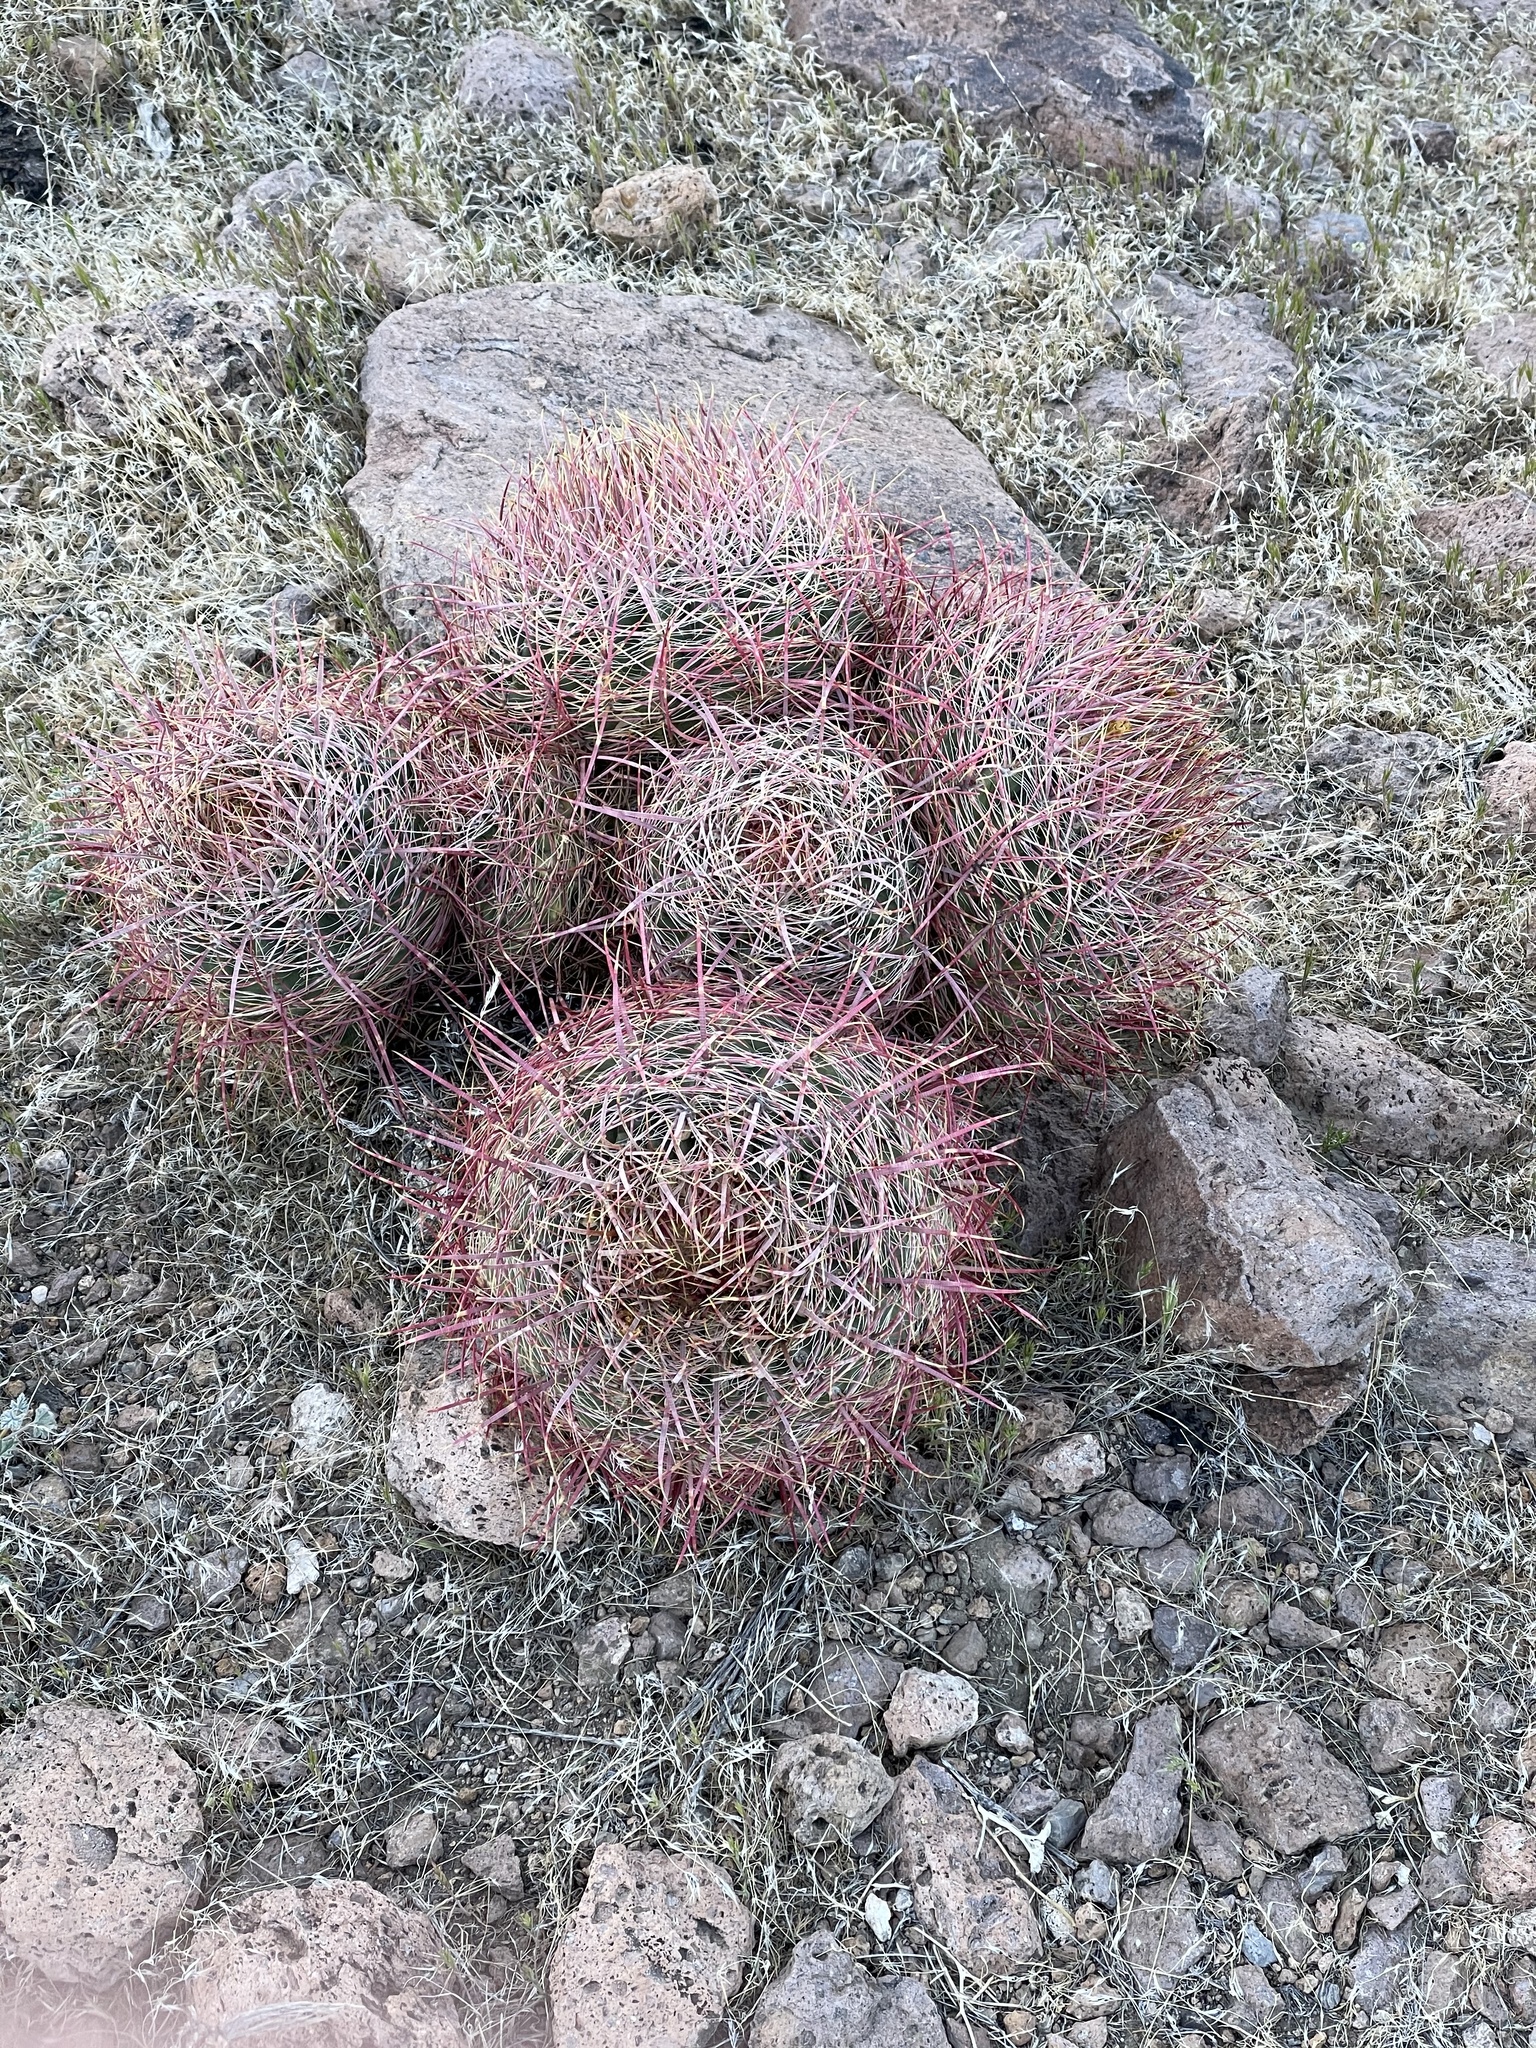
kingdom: Plantae
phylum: Tracheophyta
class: Magnoliopsida
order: Caryophyllales
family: Cactaceae
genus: Ferocactus
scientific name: Ferocactus cylindraceus
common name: California barrel cactus
